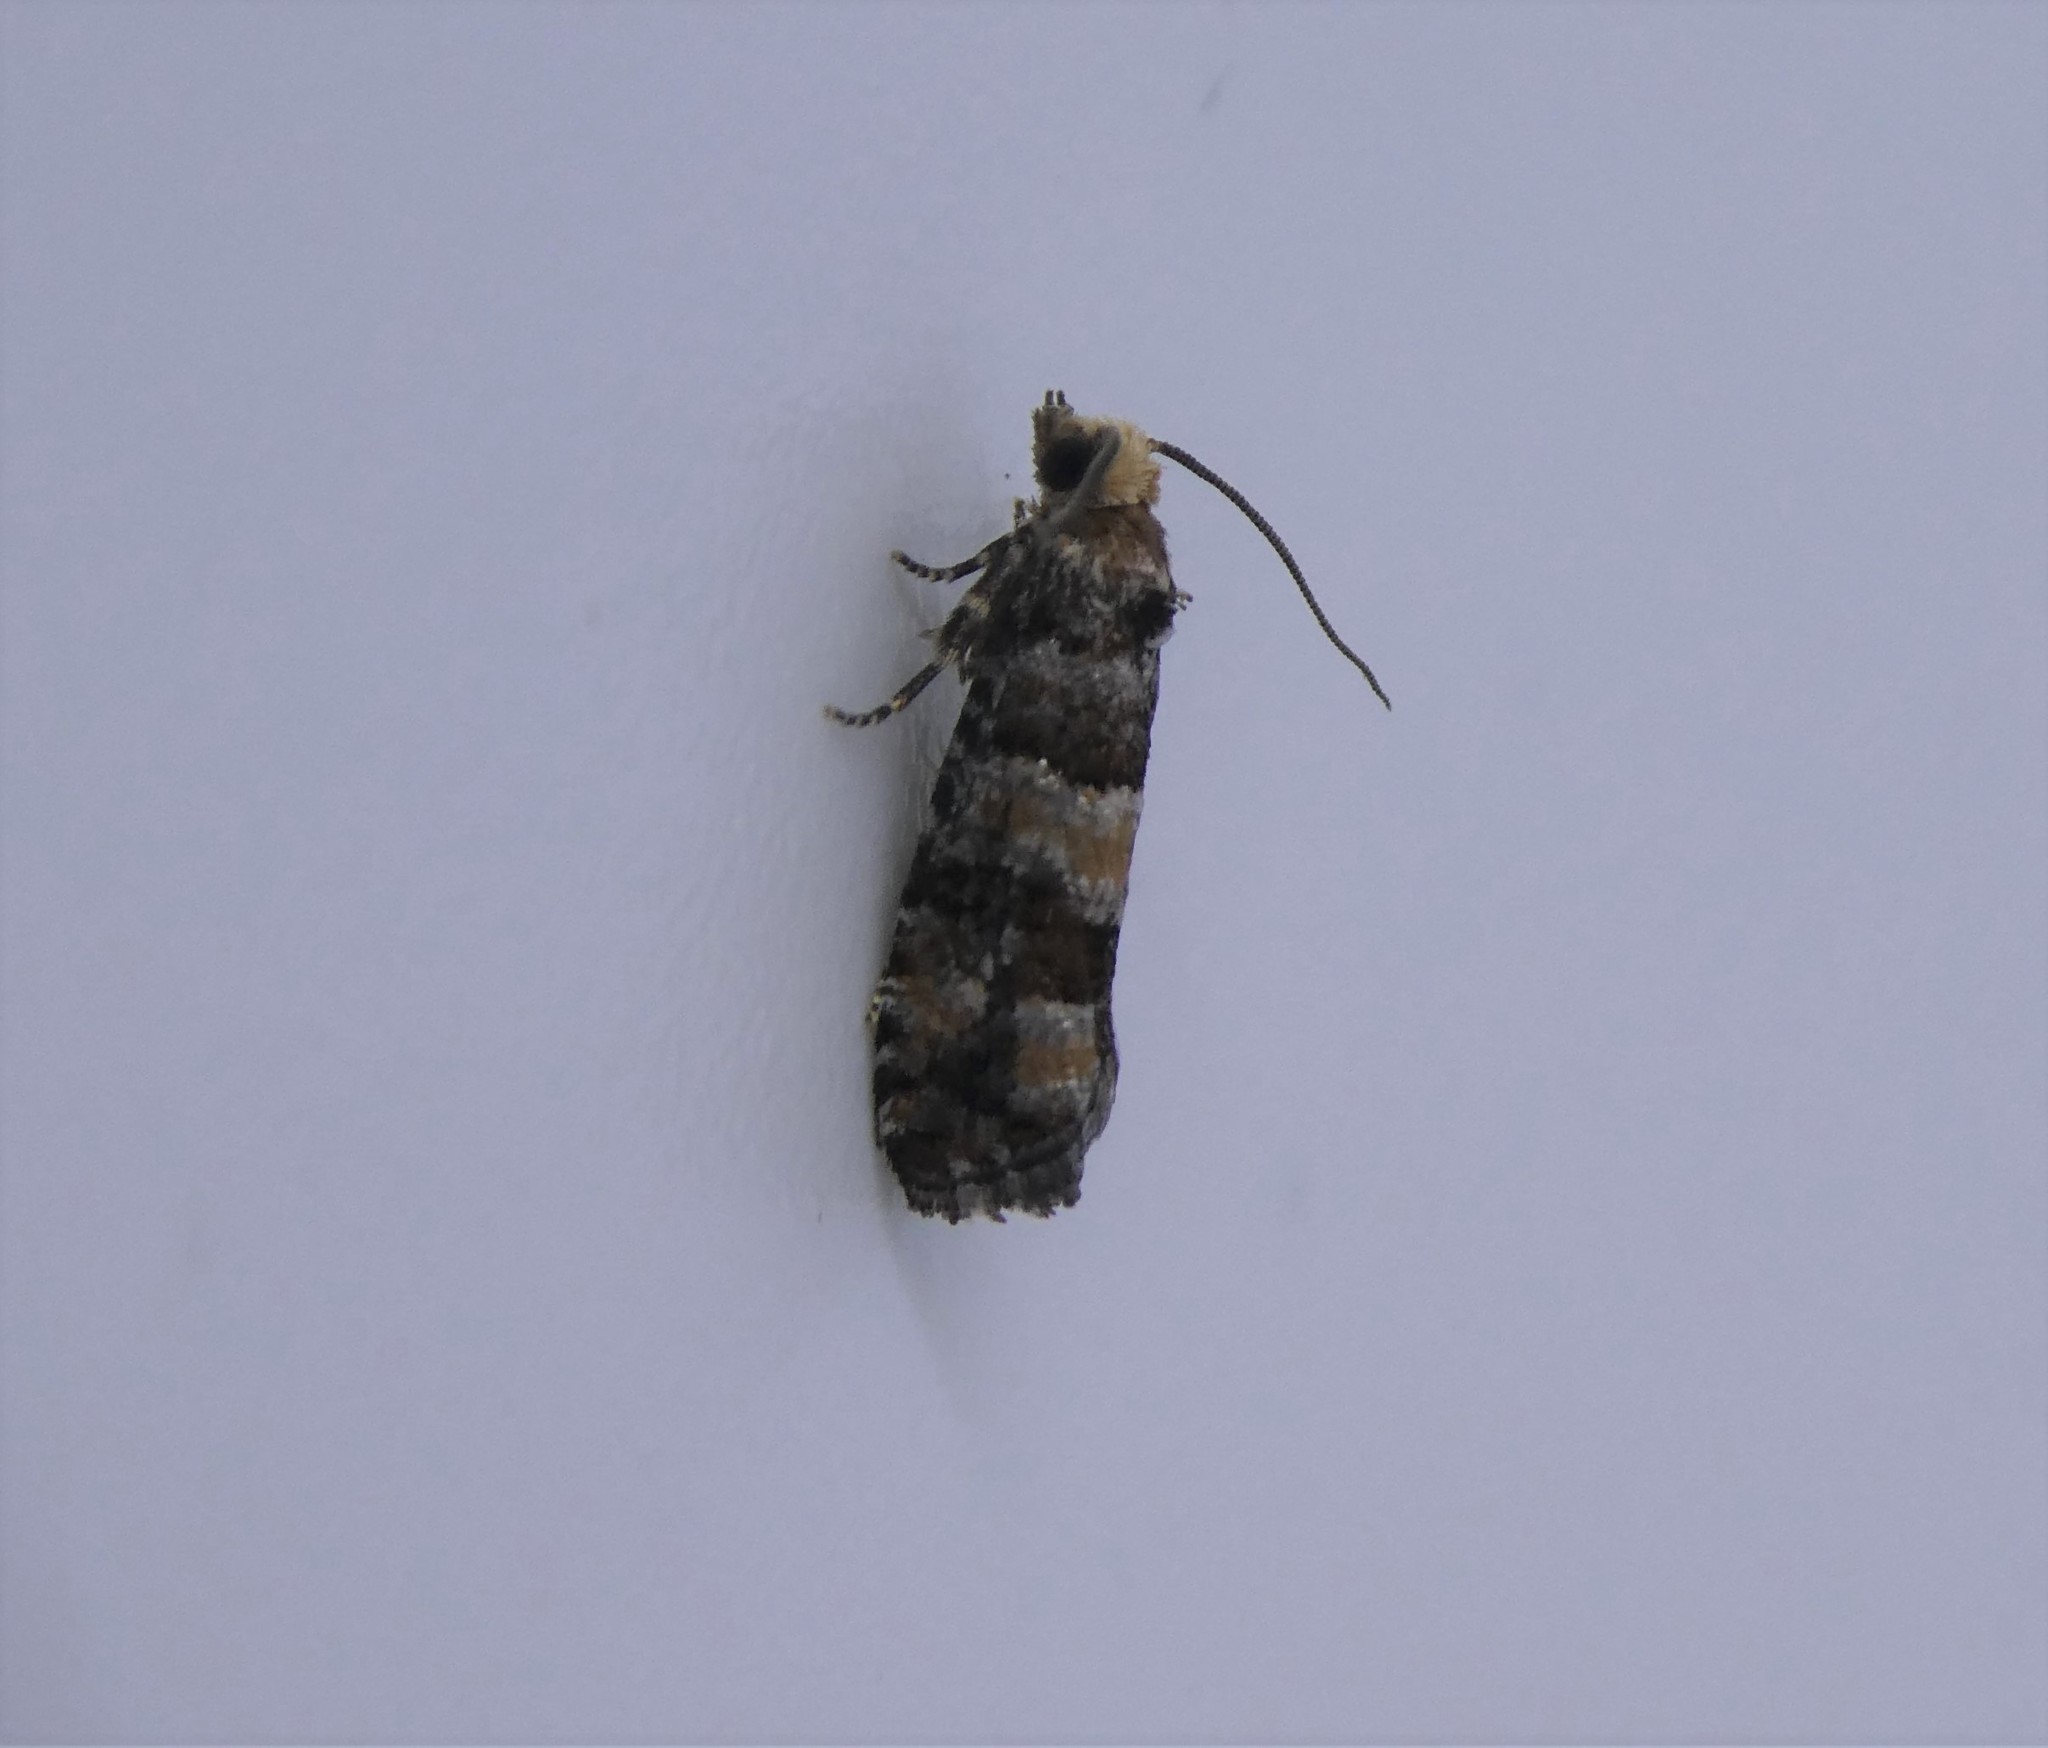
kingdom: Animalia
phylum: Arthropoda
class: Insecta
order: Lepidoptera
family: Tortricidae
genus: Eucopina
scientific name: Eucopina tocullionana
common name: White pinecone borer moth
